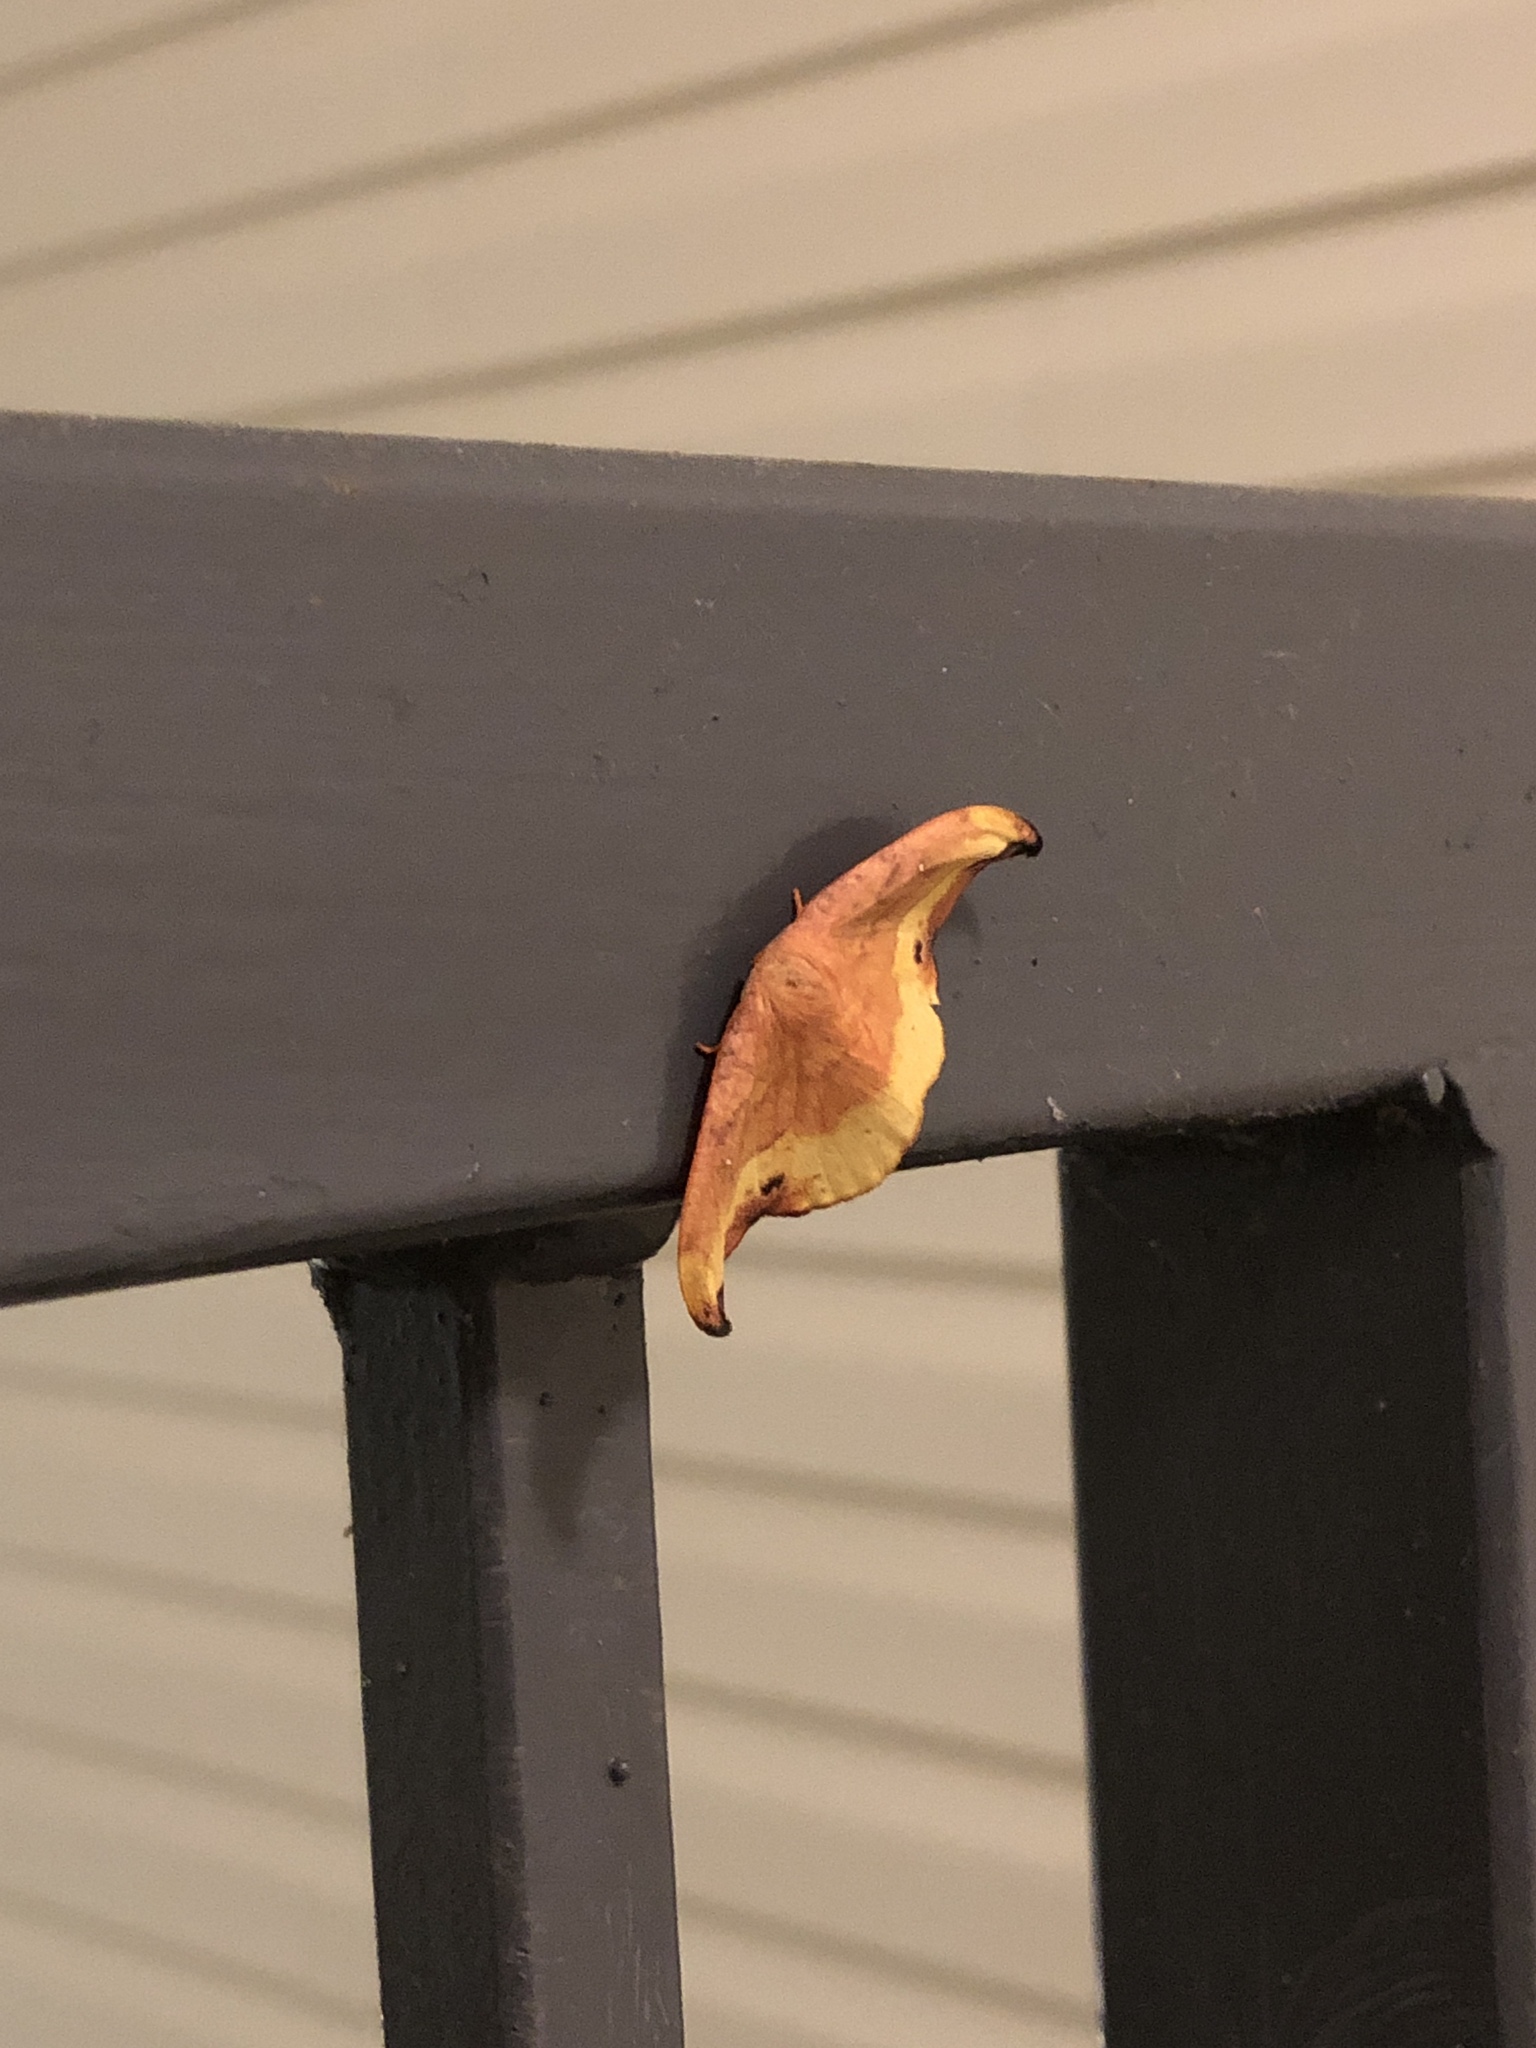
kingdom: Animalia
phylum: Arthropoda
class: Insecta
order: Lepidoptera
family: Drepanidae
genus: Oreta
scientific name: Oreta rosea
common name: Rose hooktip
